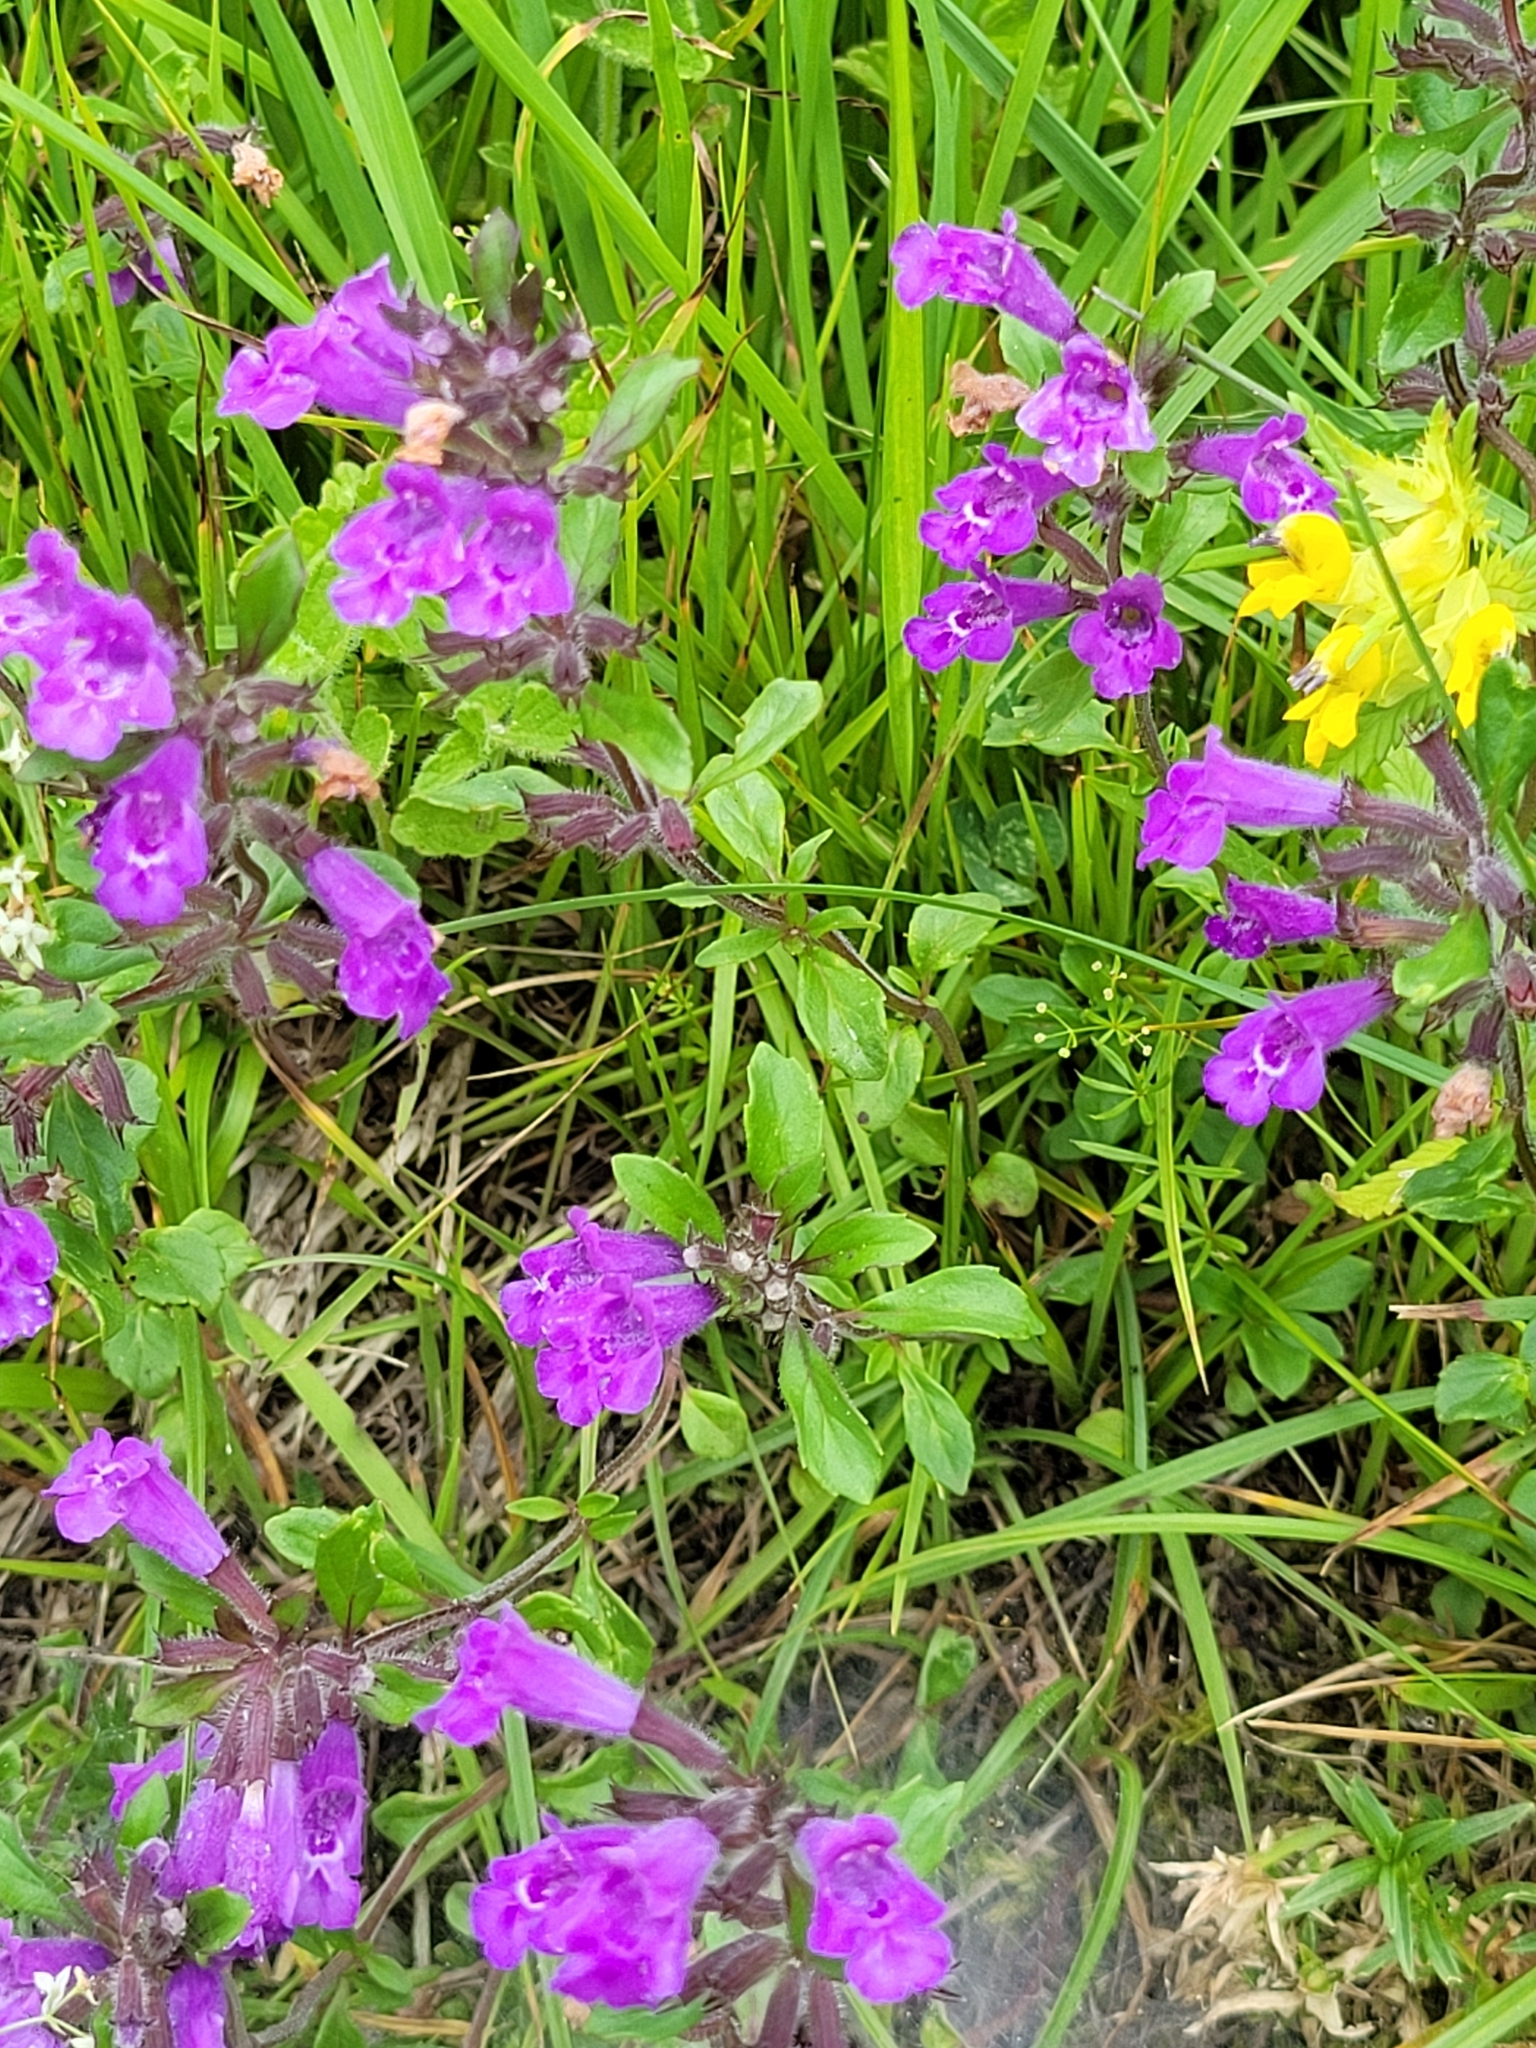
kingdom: Plantae
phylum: Tracheophyta
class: Magnoliopsida
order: Lamiales
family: Lamiaceae
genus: Clinopodium
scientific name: Clinopodium alpinum
